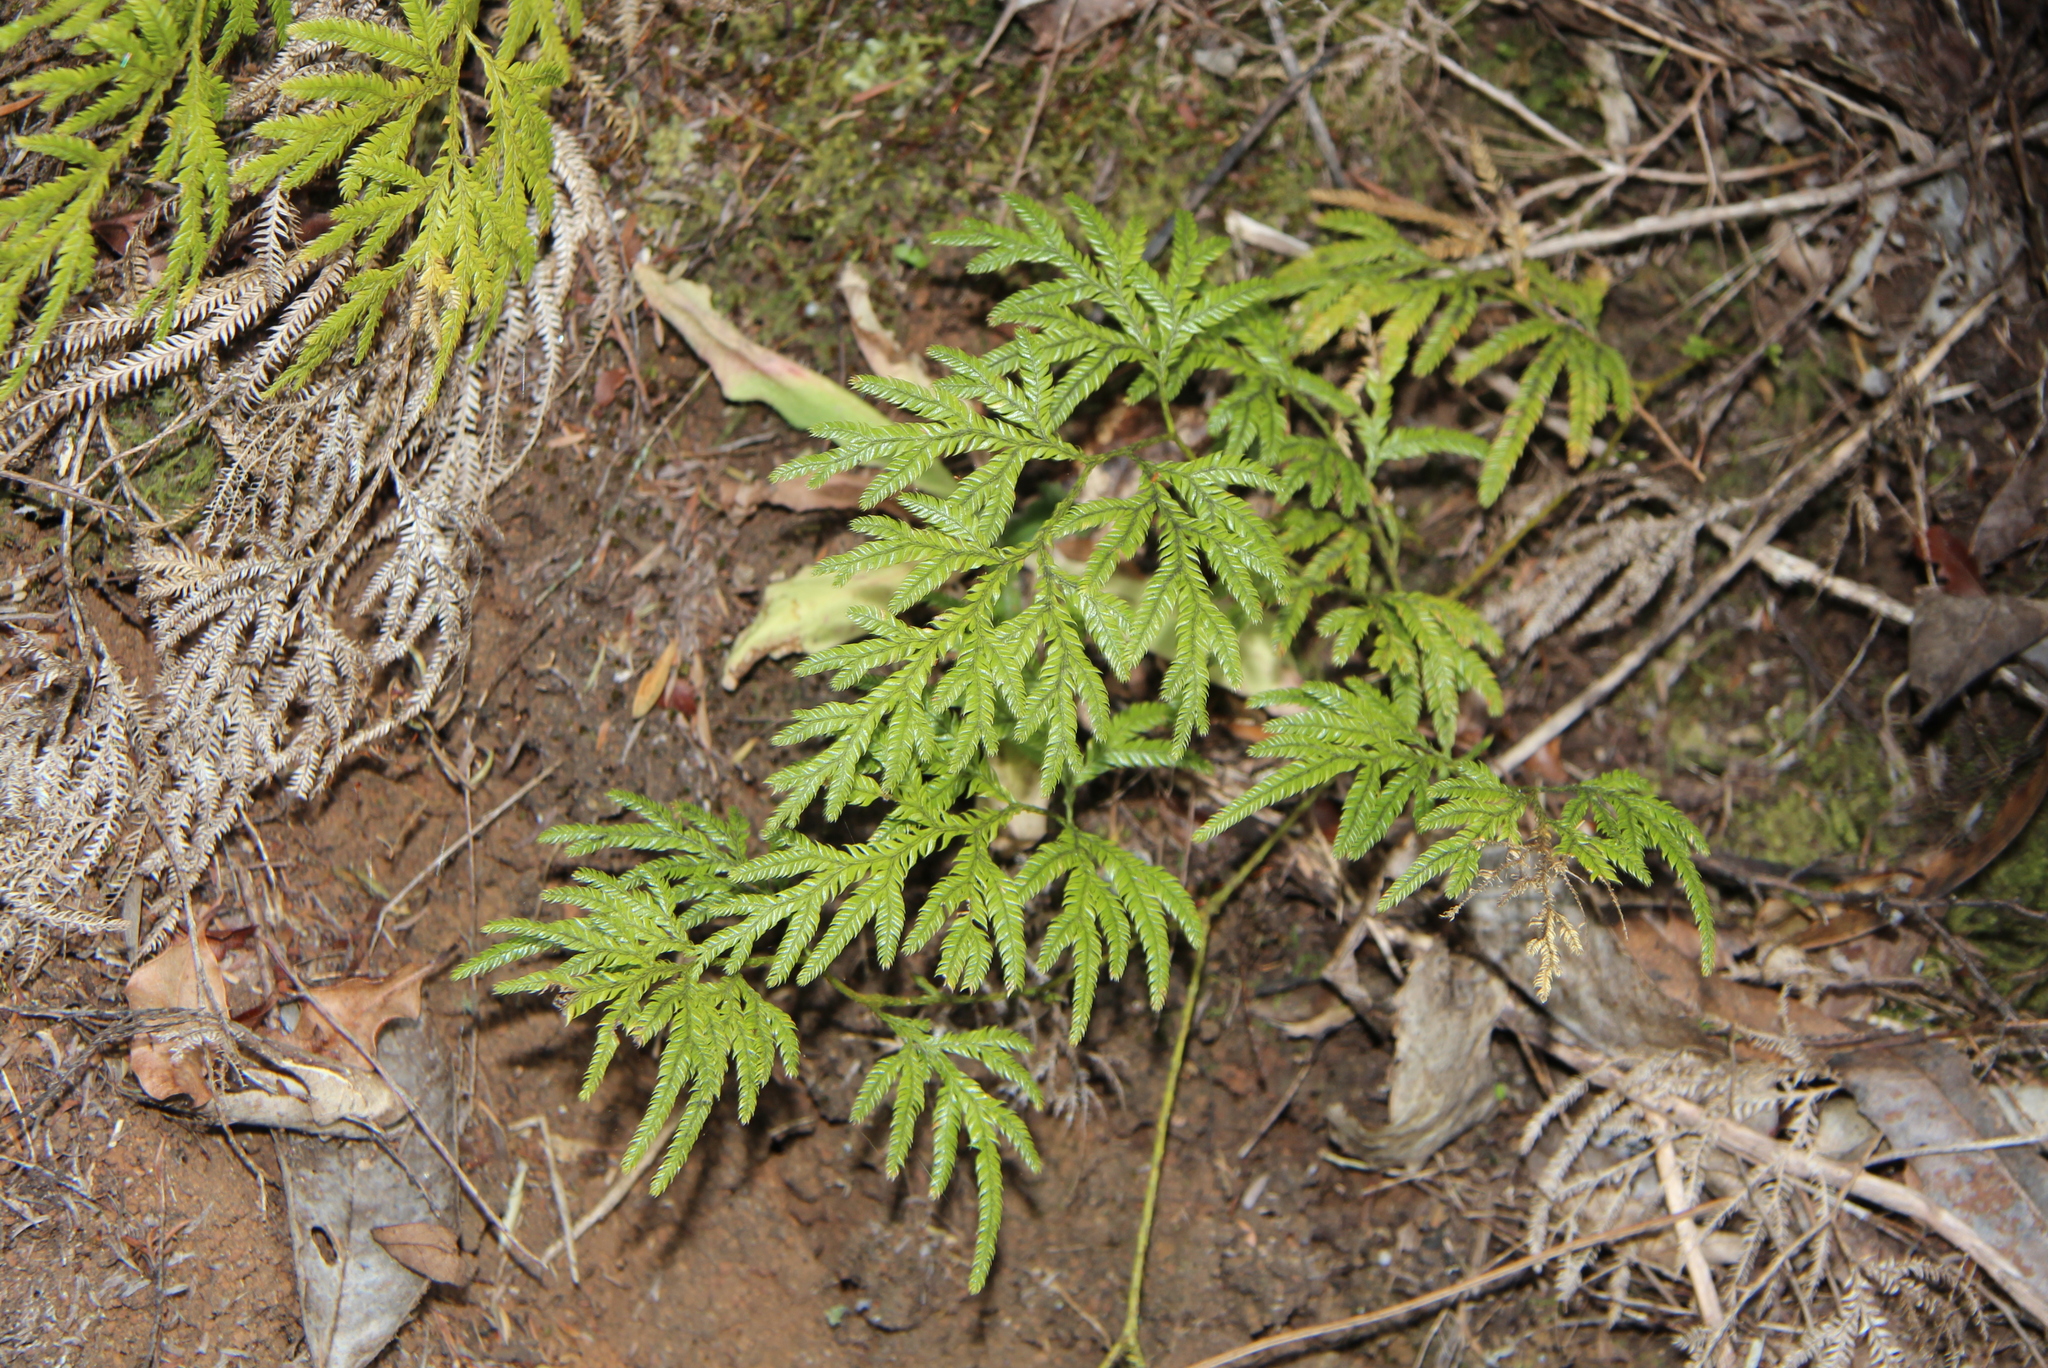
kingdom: Plantae
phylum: Tracheophyta
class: Lycopodiopsida
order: Lycopodiales
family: Lycopodiaceae
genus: Lycopodium
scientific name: Lycopodium volubile
